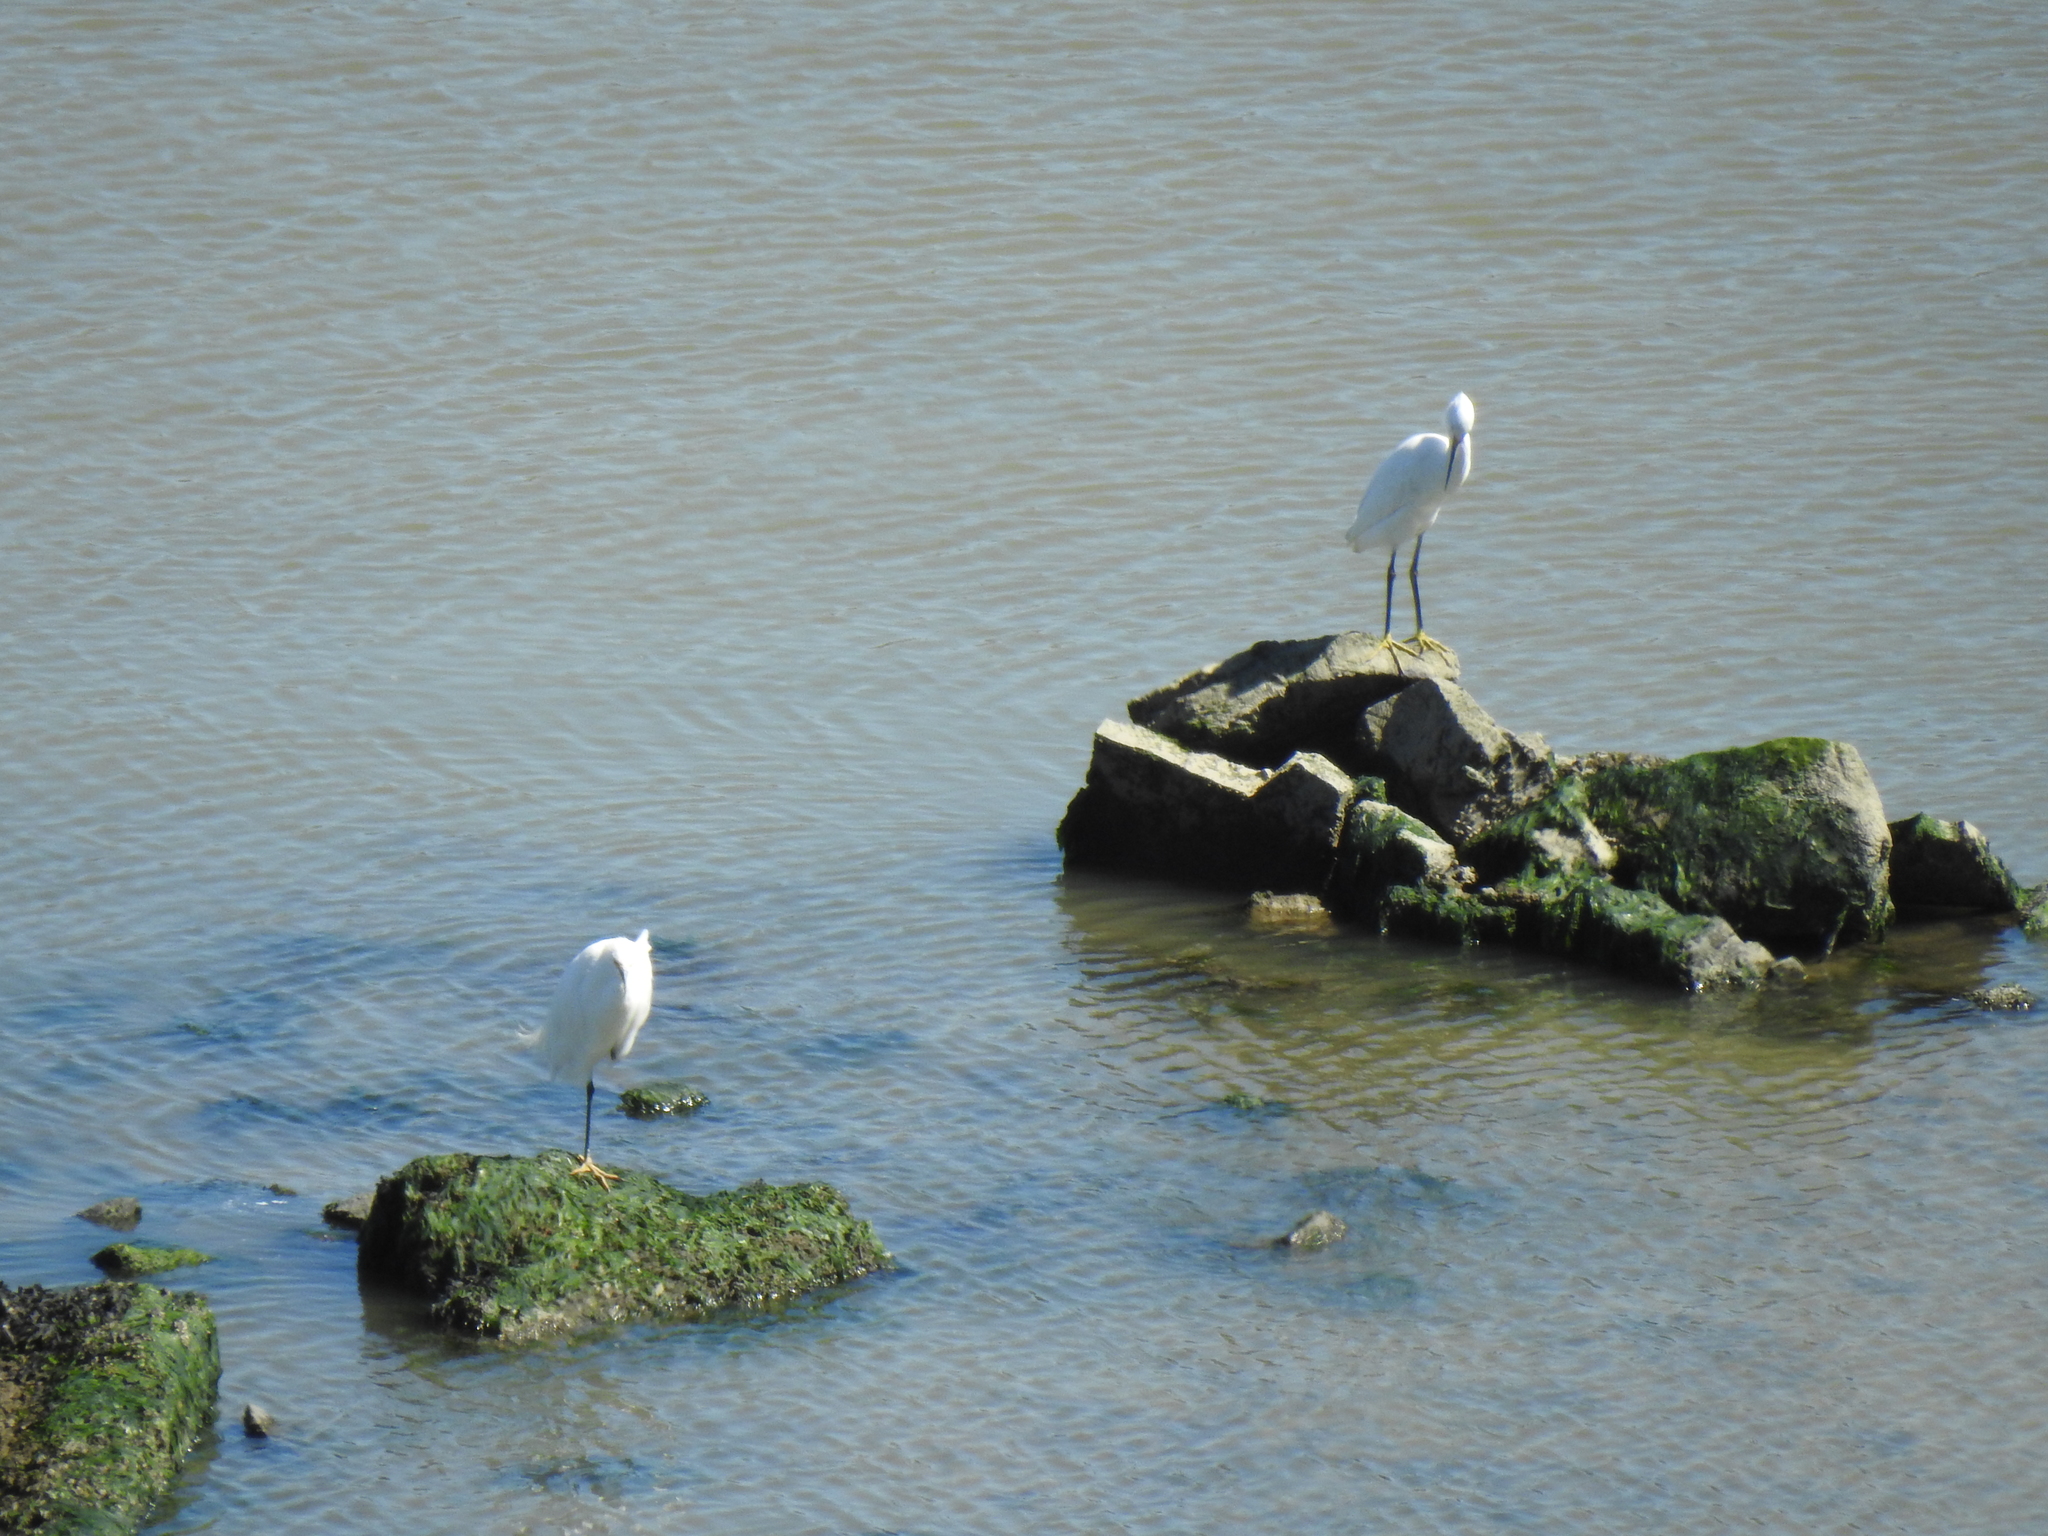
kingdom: Animalia
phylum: Chordata
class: Aves
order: Pelecaniformes
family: Ardeidae
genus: Egretta
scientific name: Egretta thula
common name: Snowy egret
